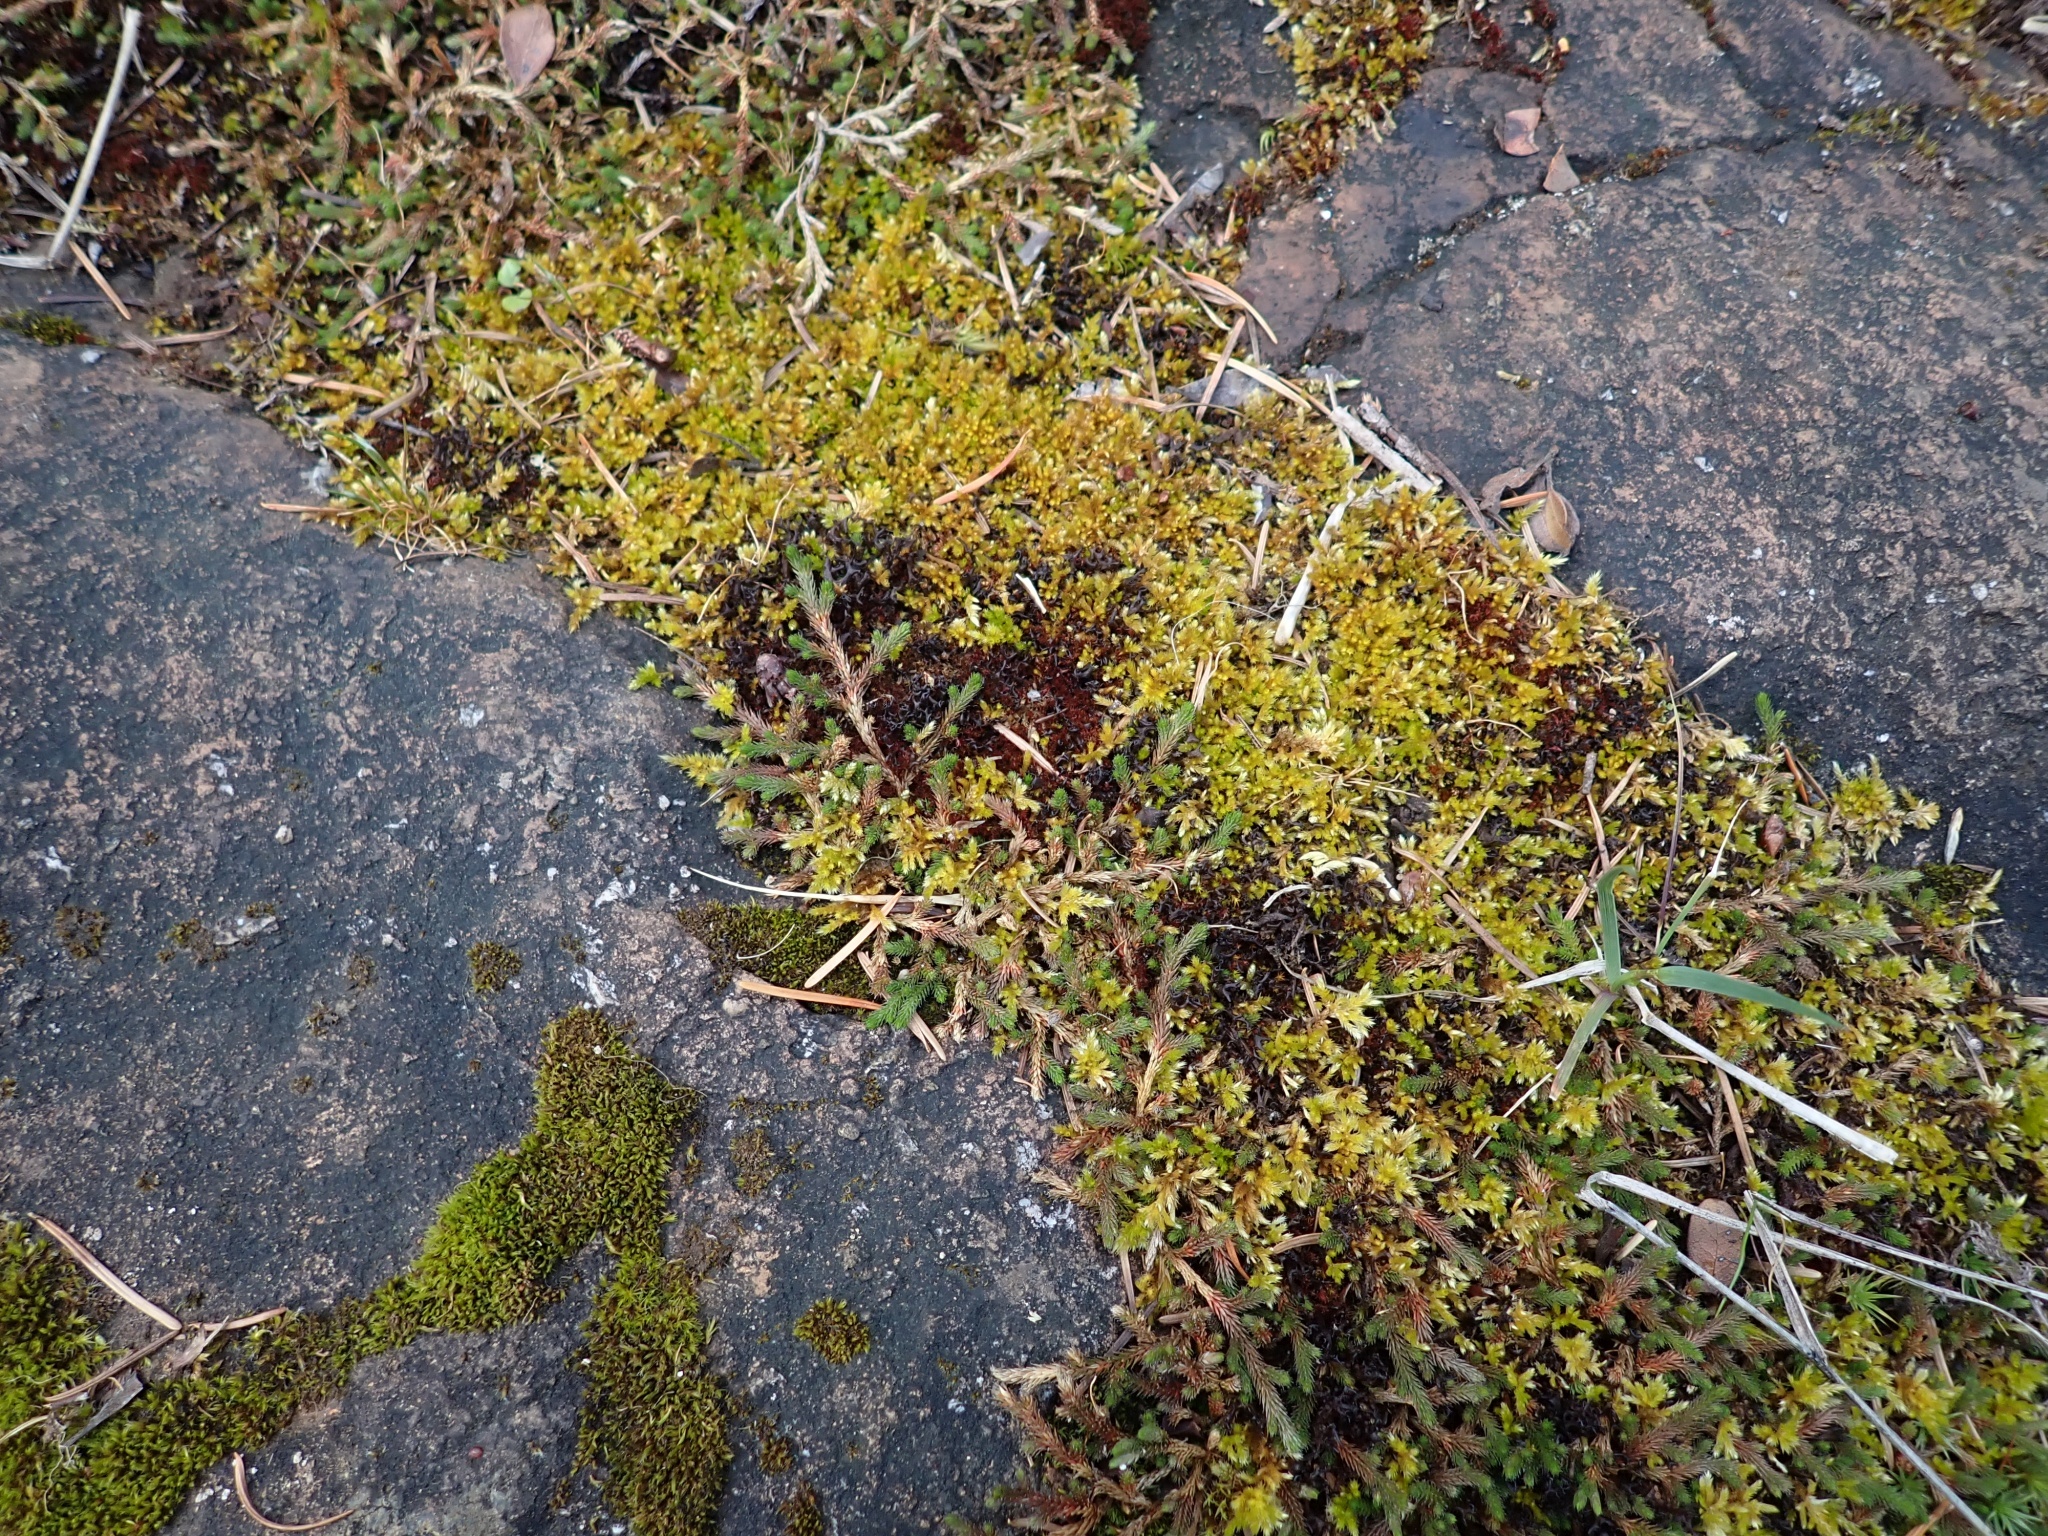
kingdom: Plantae
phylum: Tracheophyta
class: Lycopodiopsida
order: Selaginellales
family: Selaginellaceae
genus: Selaginella
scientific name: Selaginella wallacei
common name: Wallace's selaginella
